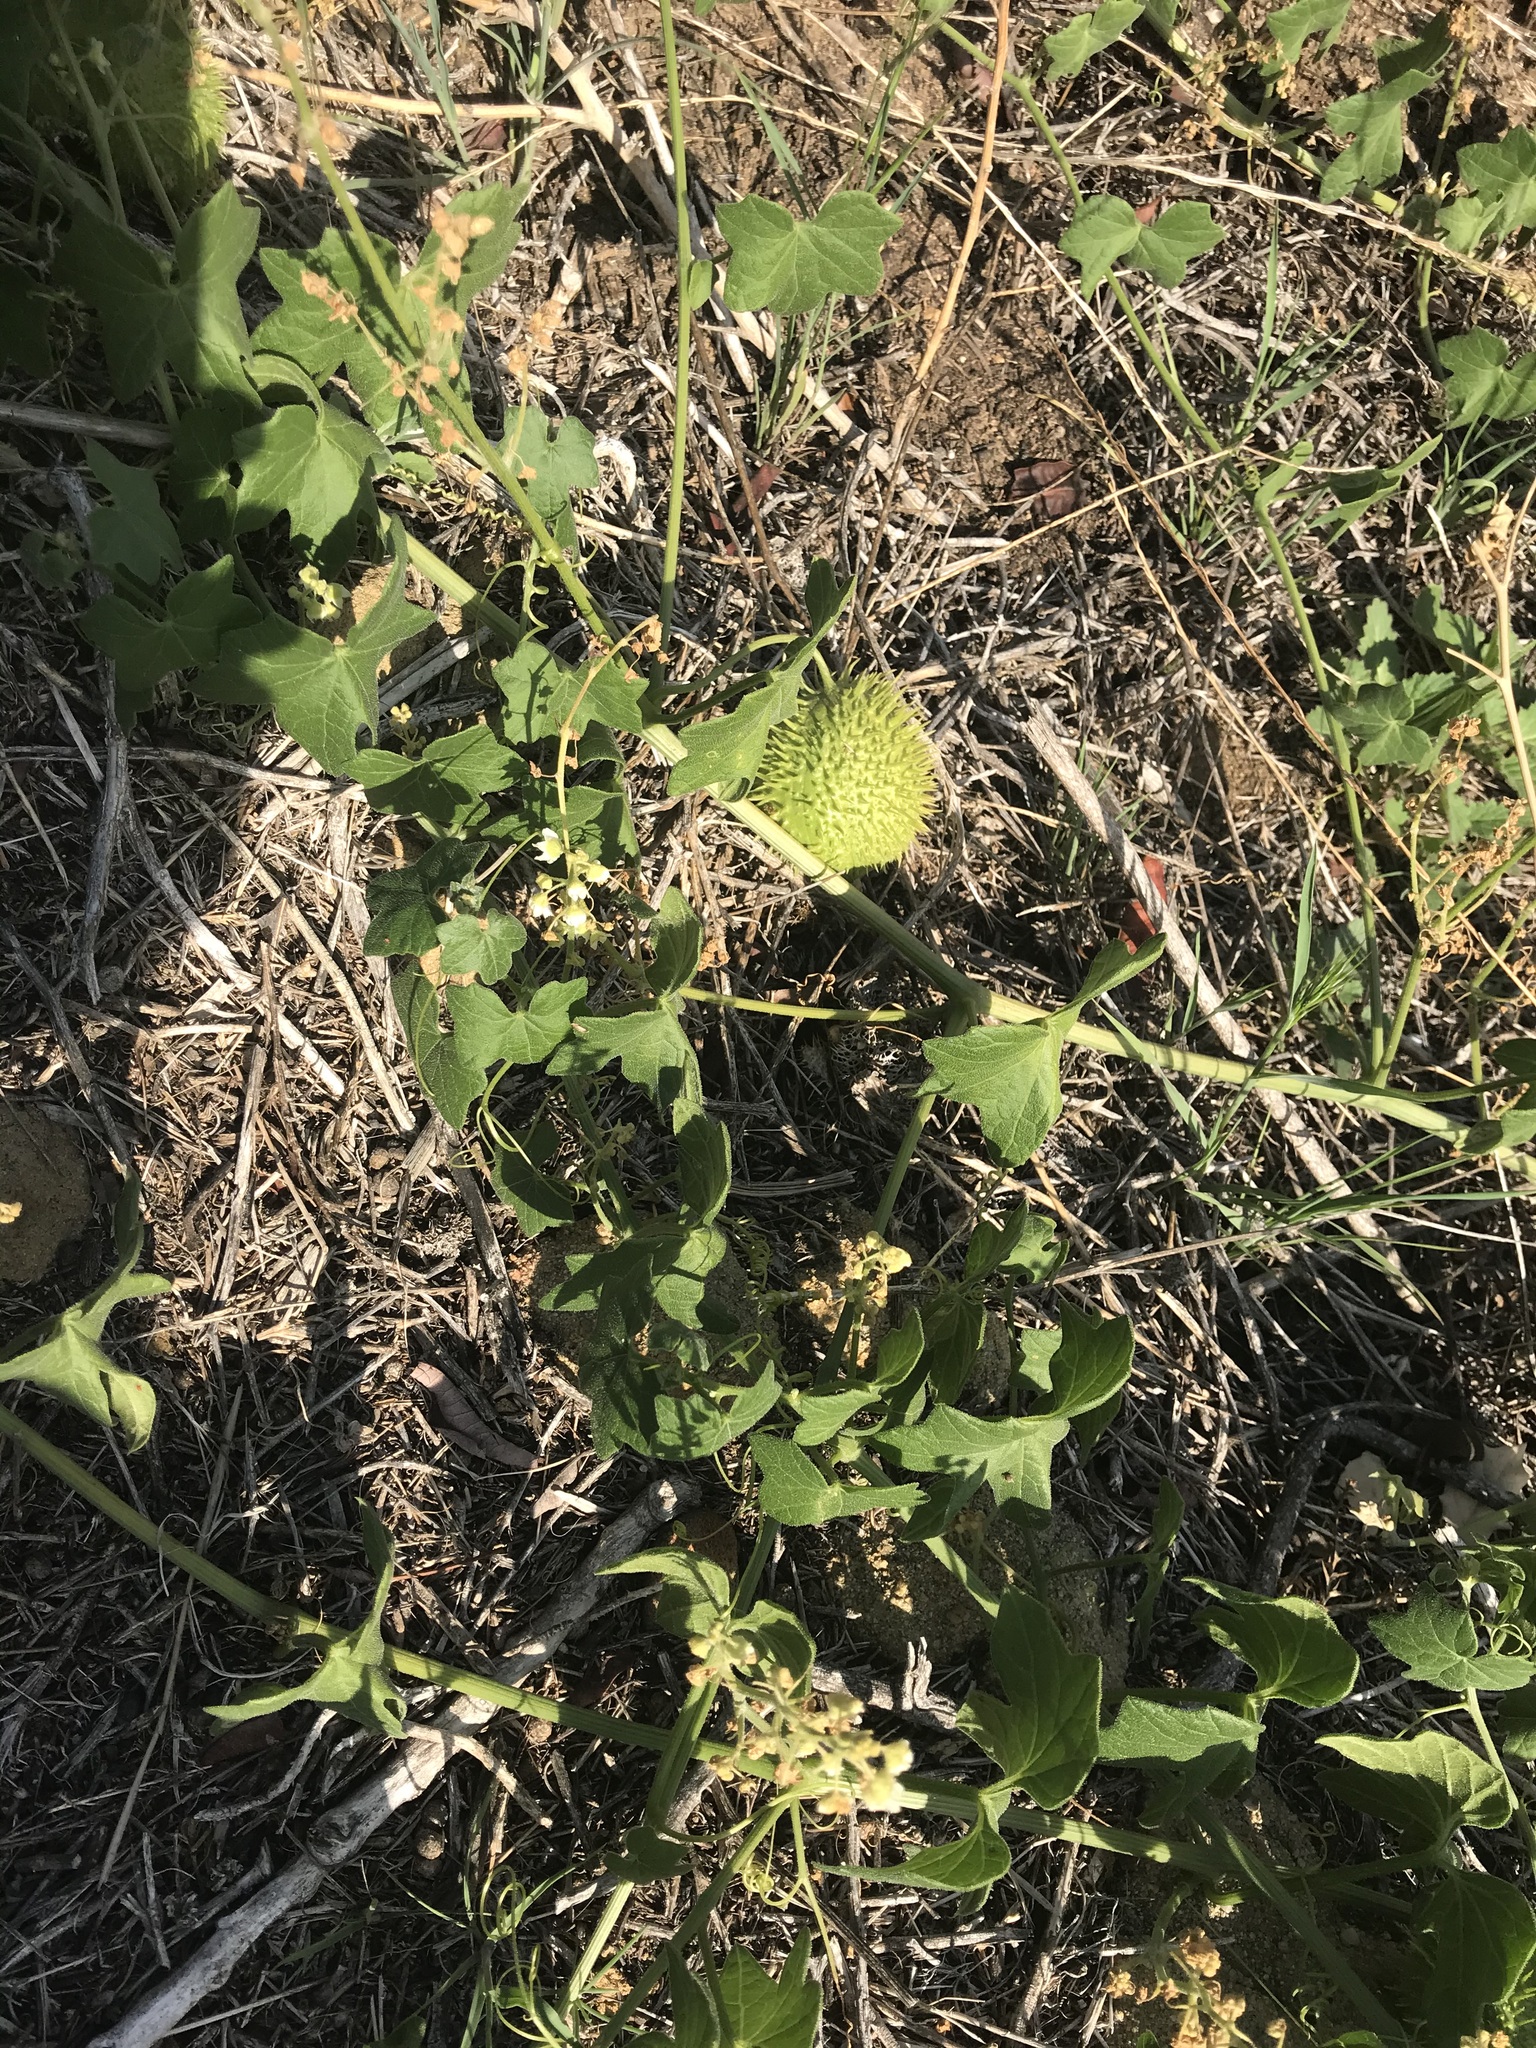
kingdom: Plantae
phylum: Tracheophyta
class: Magnoliopsida
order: Cucurbitales
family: Cucurbitaceae
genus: Marah
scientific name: Marah macrocarpa
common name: Cucamonga manroot
